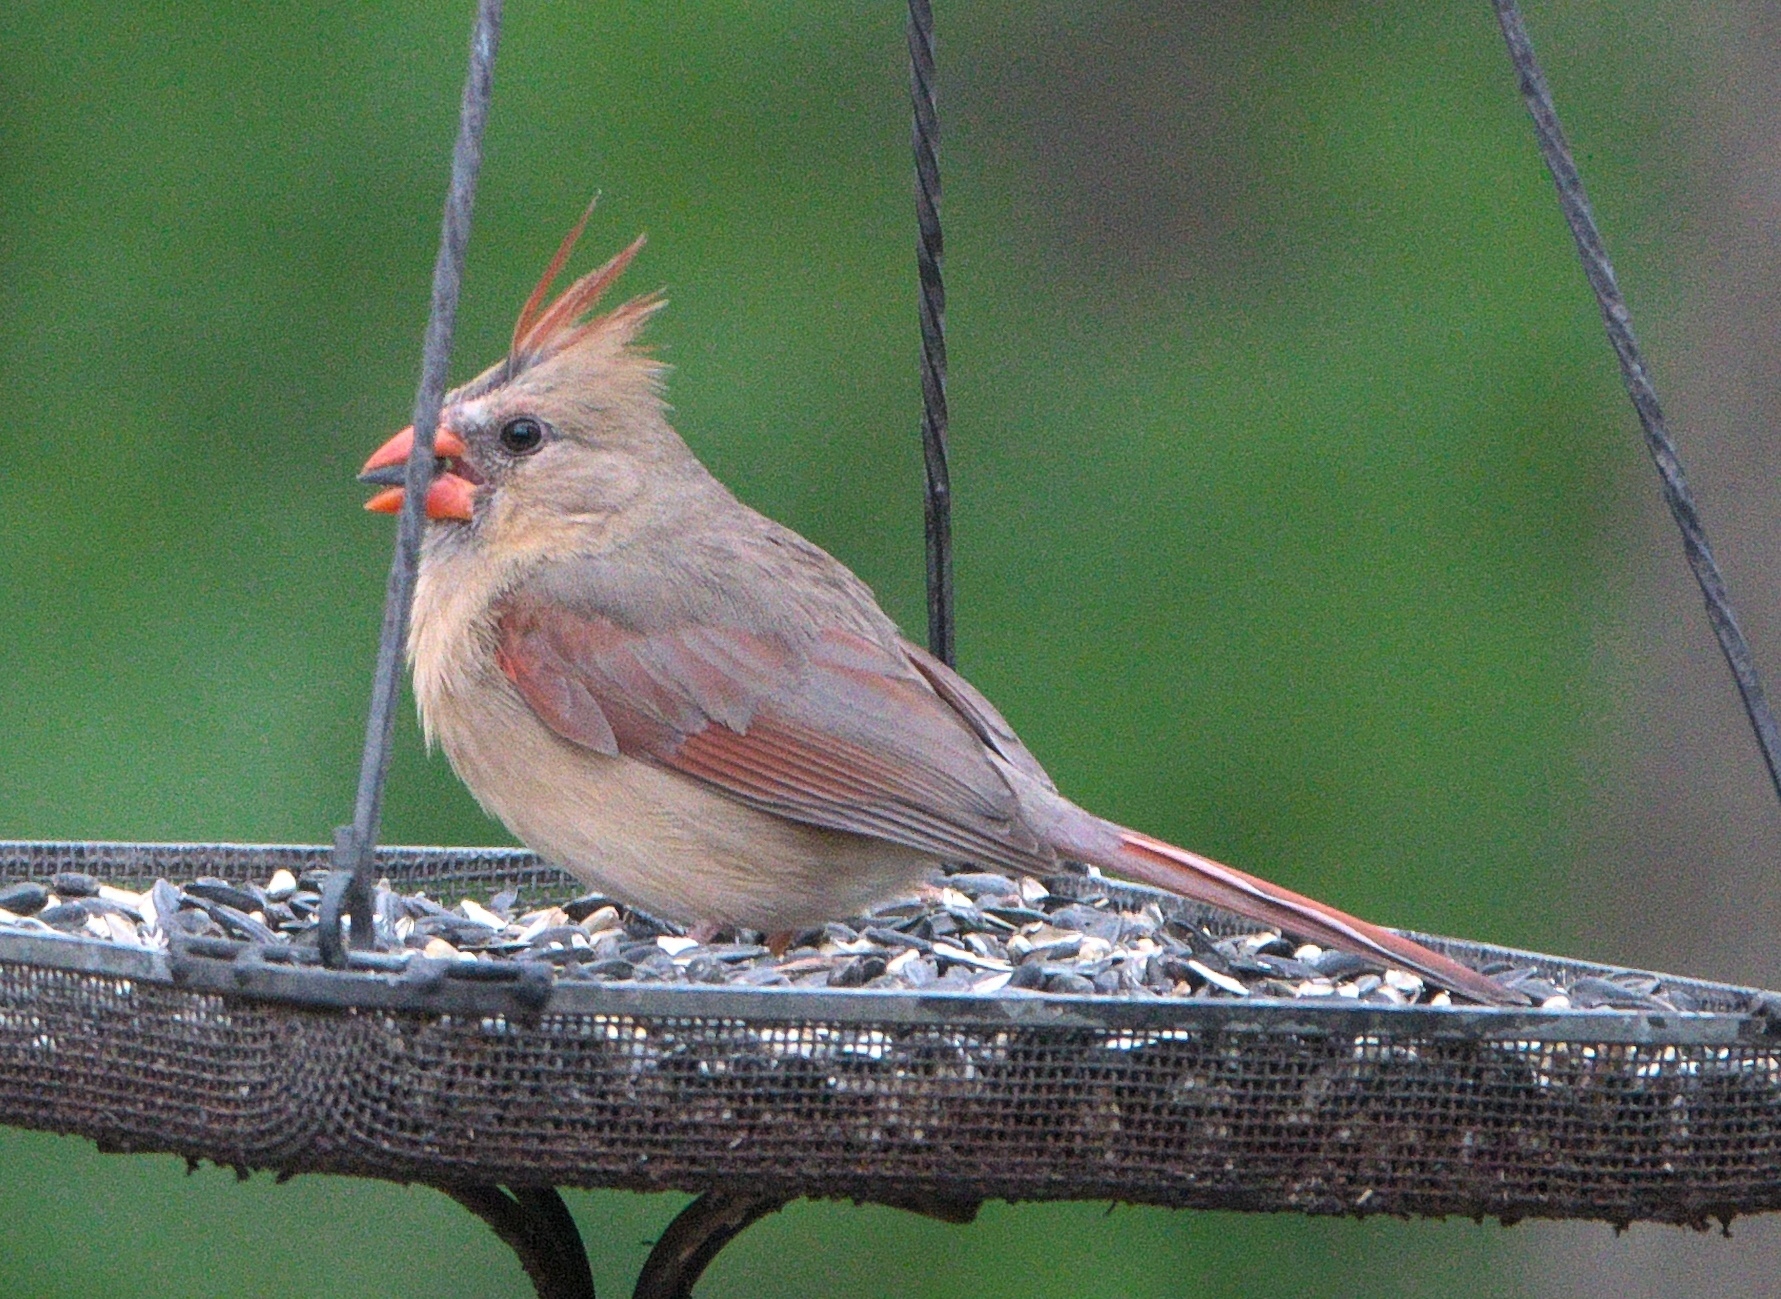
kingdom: Animalia
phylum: Chordata
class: Aves
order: Passeriformes
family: Cardinalidae
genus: Cardinalis
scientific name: Cardinalis cardinalis
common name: Northern cardinal
